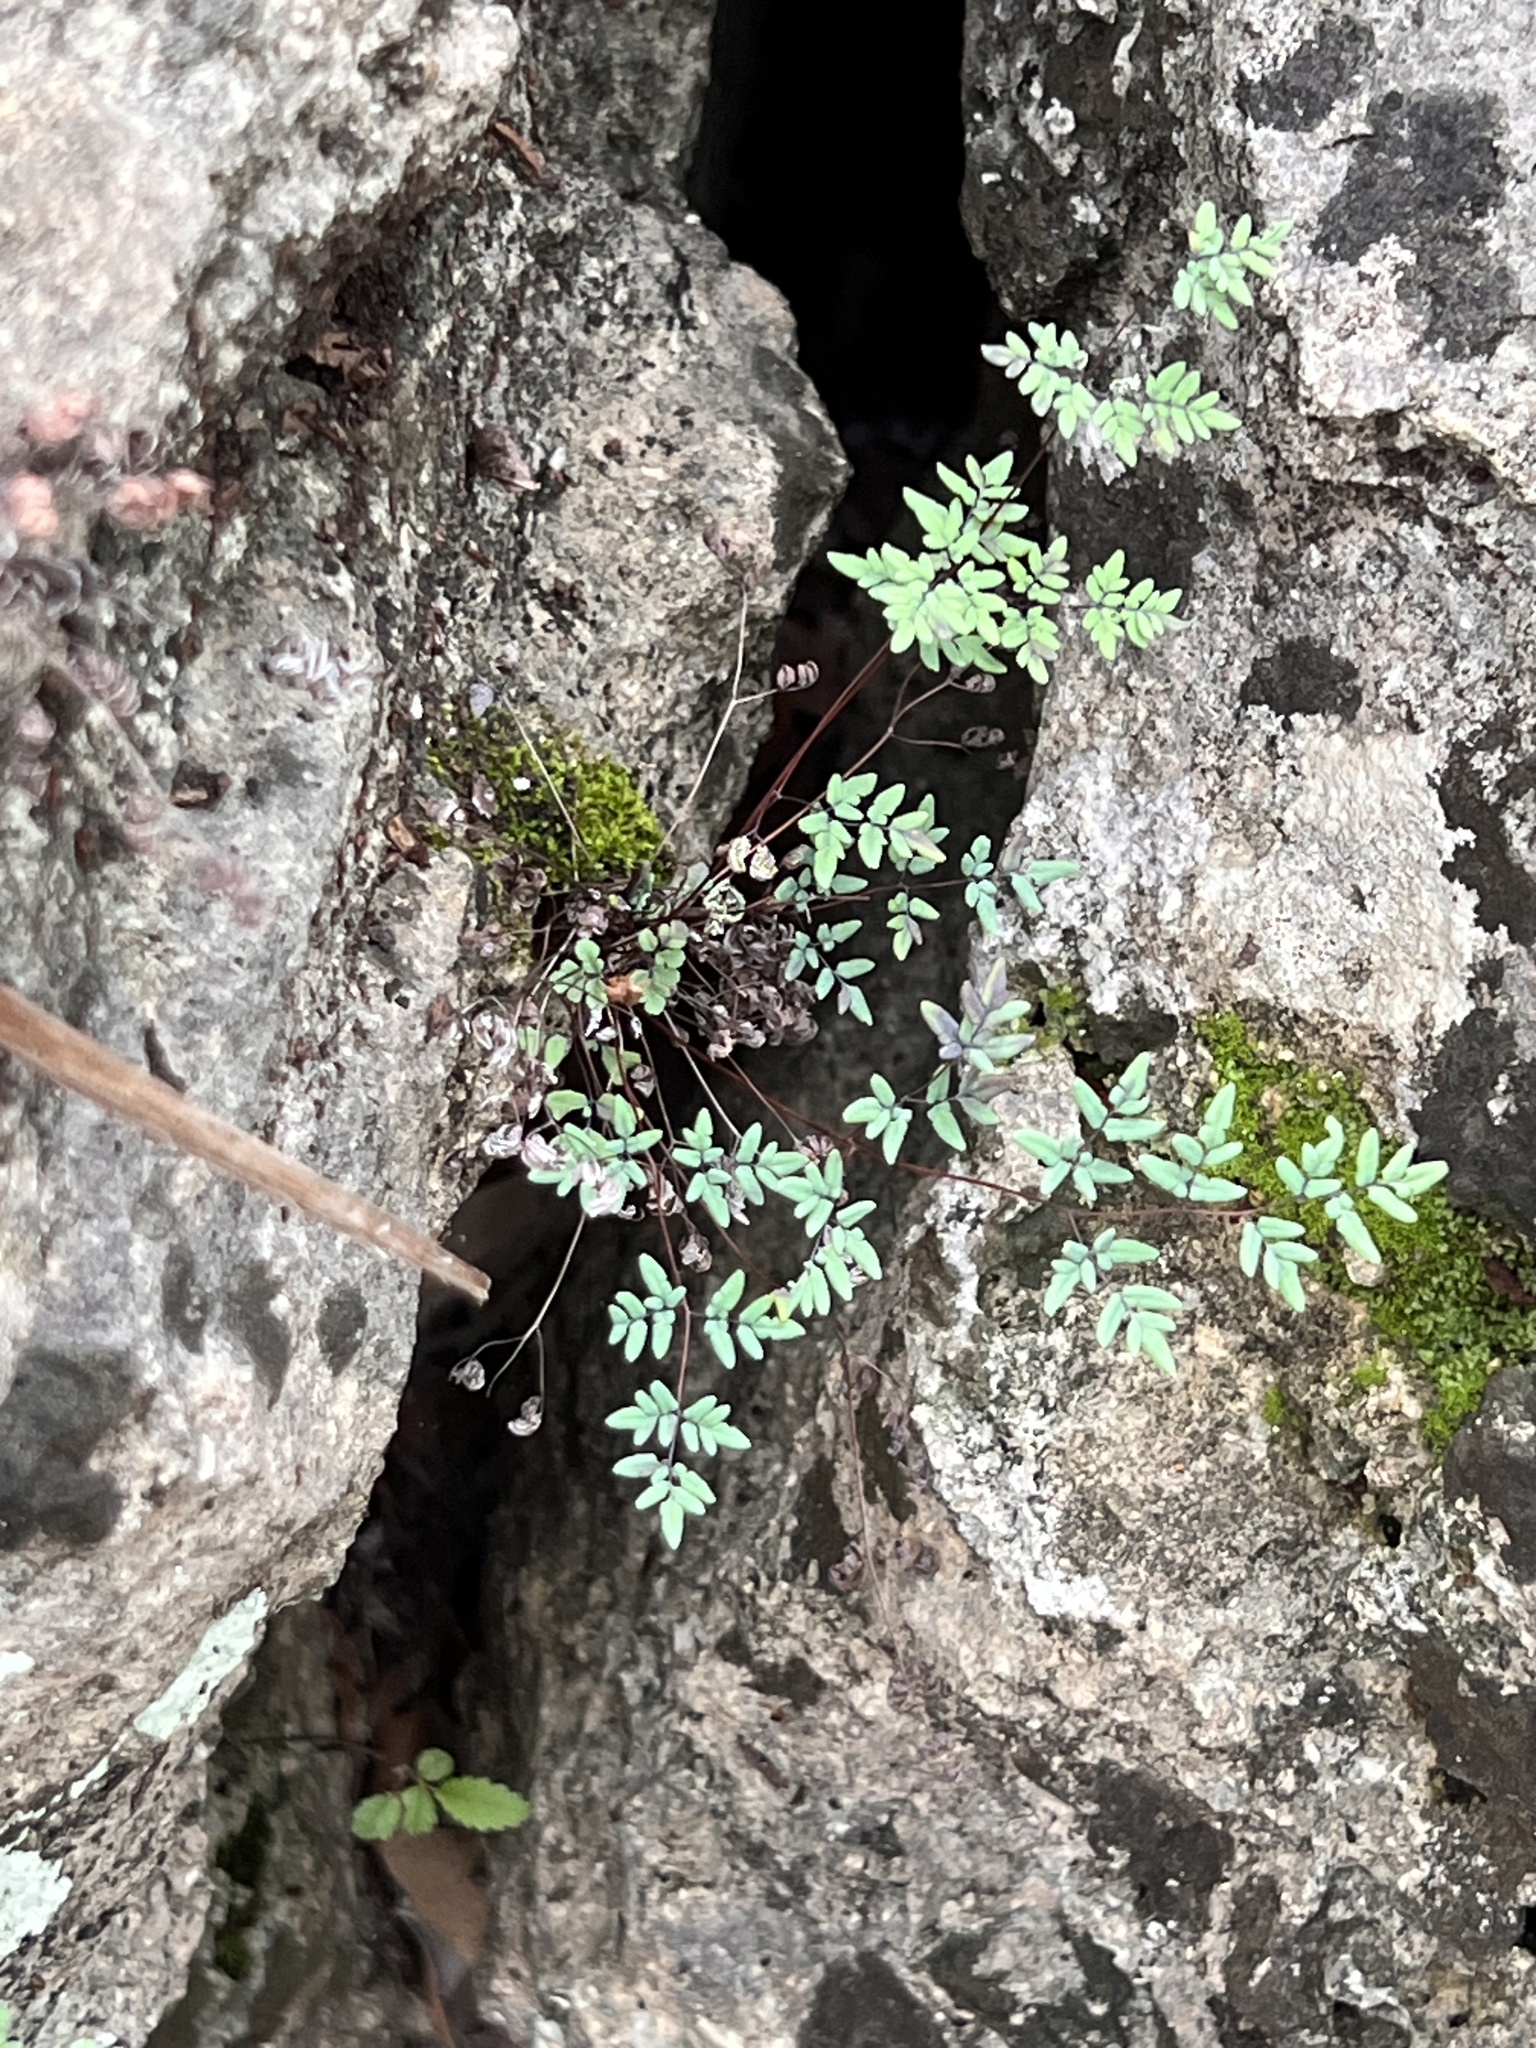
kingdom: Plantae
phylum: Tracheophyta
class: Polypodiopsida
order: Polypodiales
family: Pteridaceae
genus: Argyrochosma
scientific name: Argyrochosma dealbata
